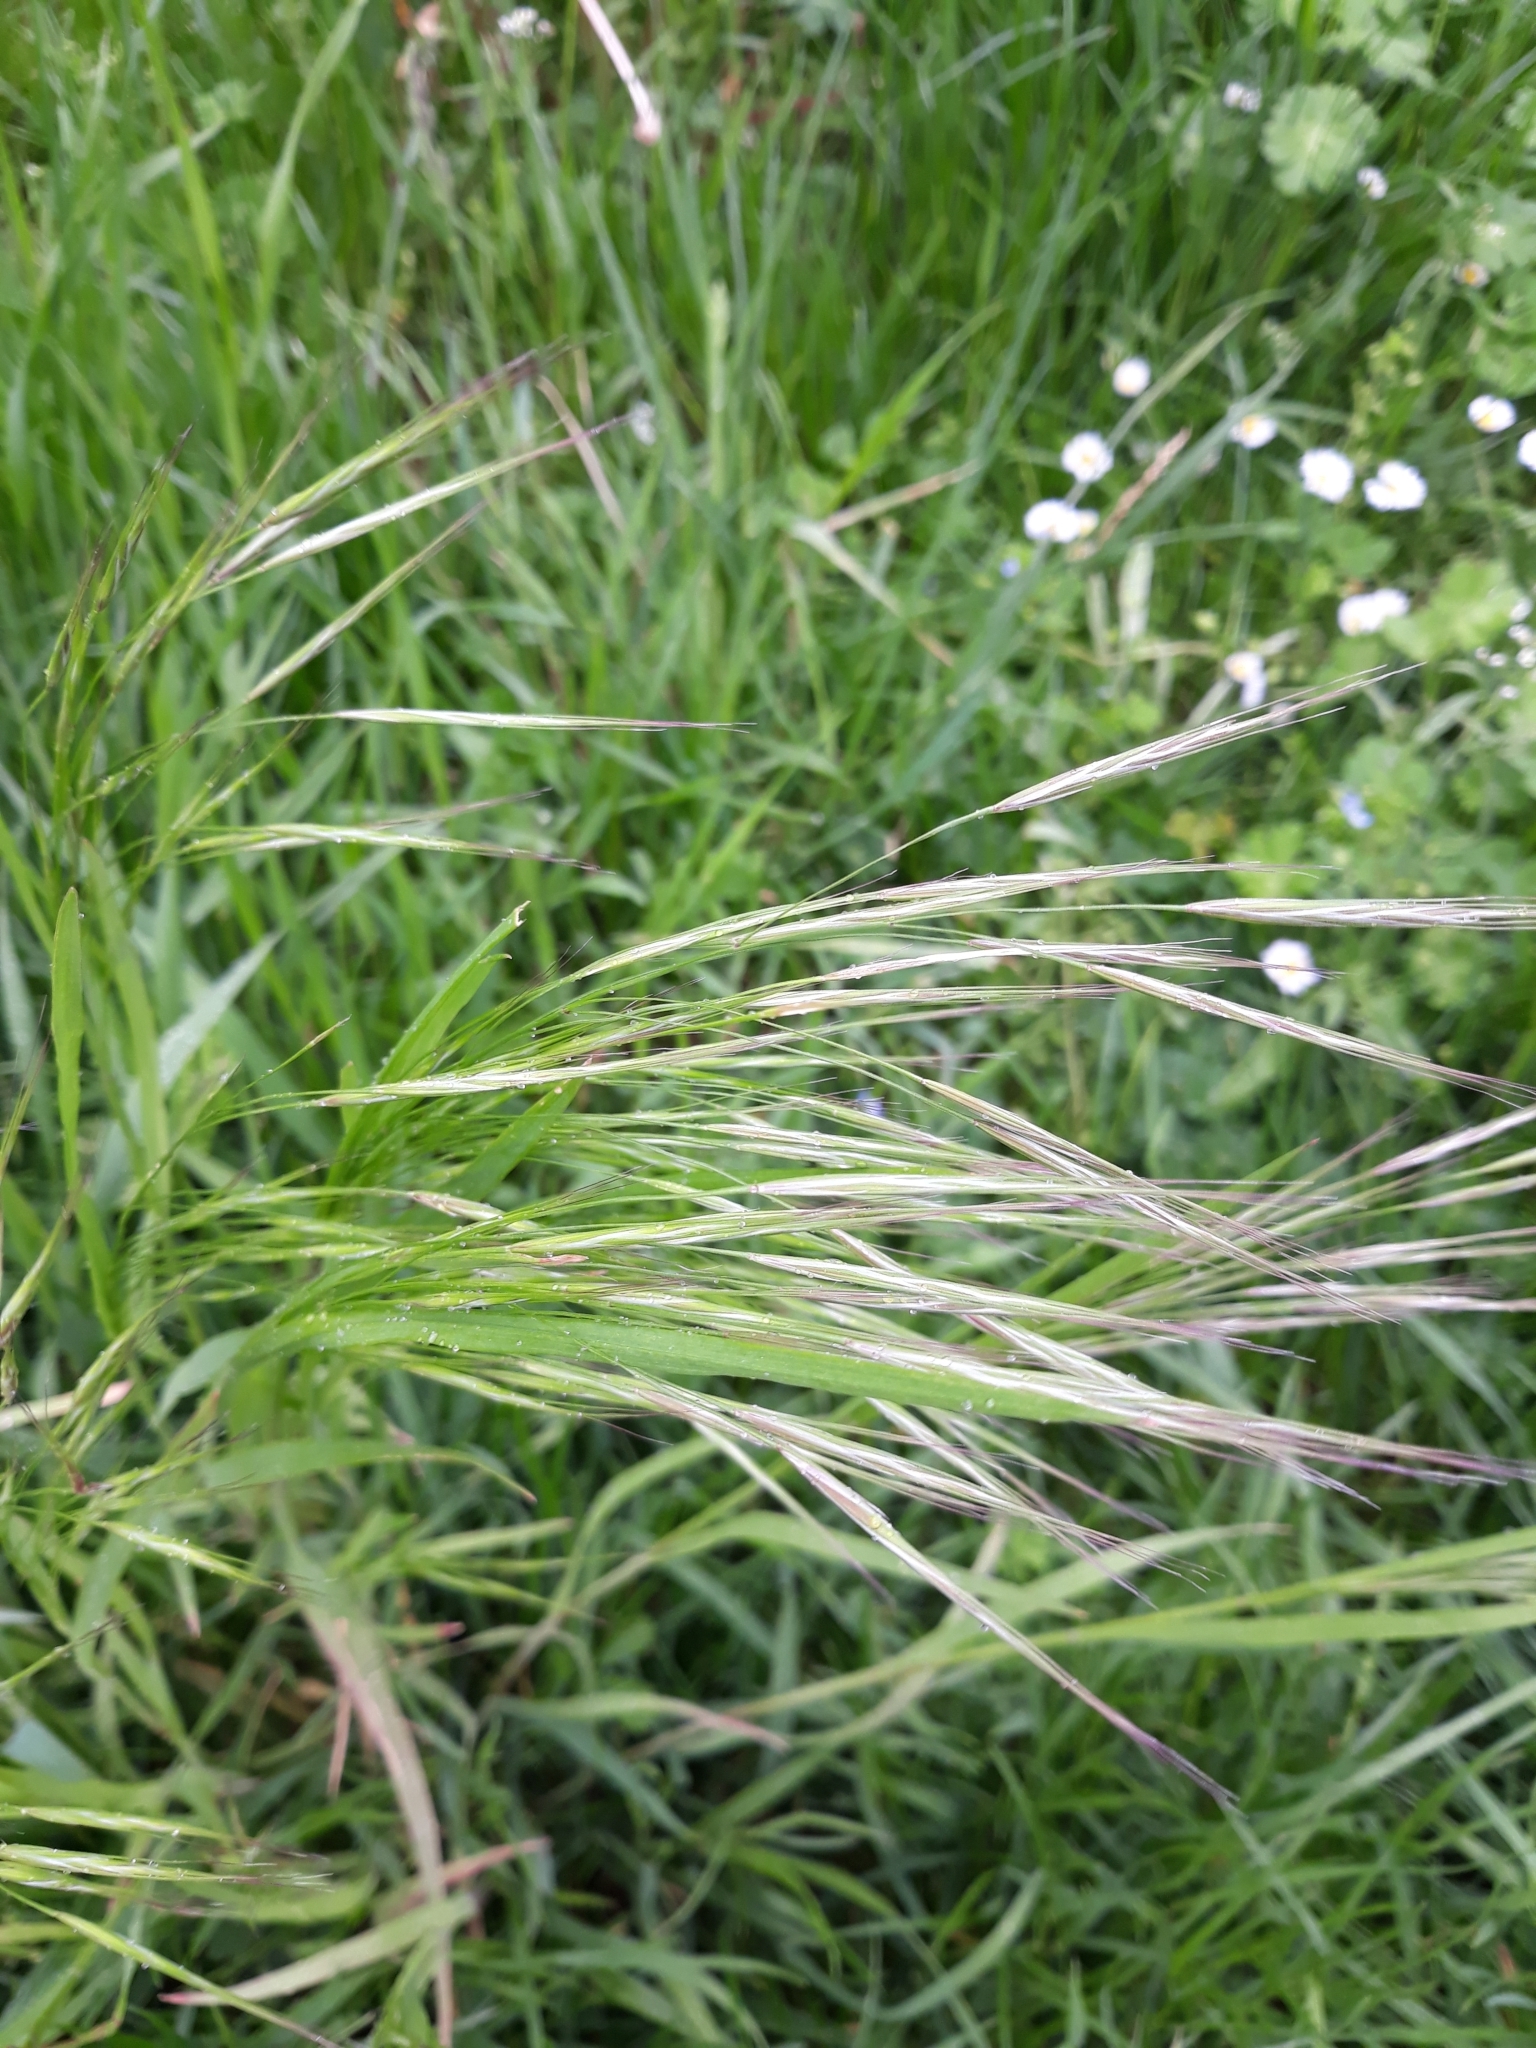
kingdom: Plantae
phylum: Tracheophyta
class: Liliopsida
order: Poales
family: Poaceae
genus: Bromus
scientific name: Bromus sterilis
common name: Poverty brome
